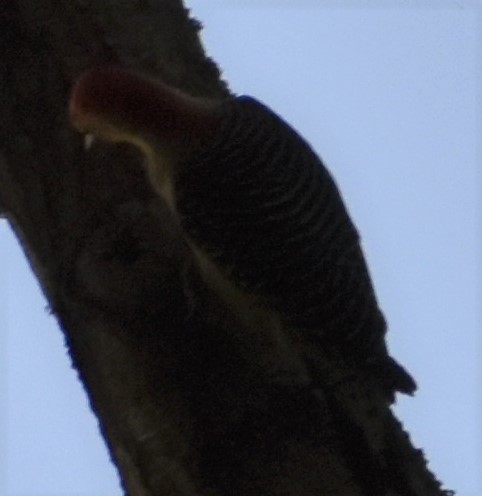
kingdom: Animalia
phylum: Chordata
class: Aves
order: Piciformes
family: Picidae
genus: Melanerpes
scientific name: Melanerpes carolinus
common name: Red-bellied woodpecker
